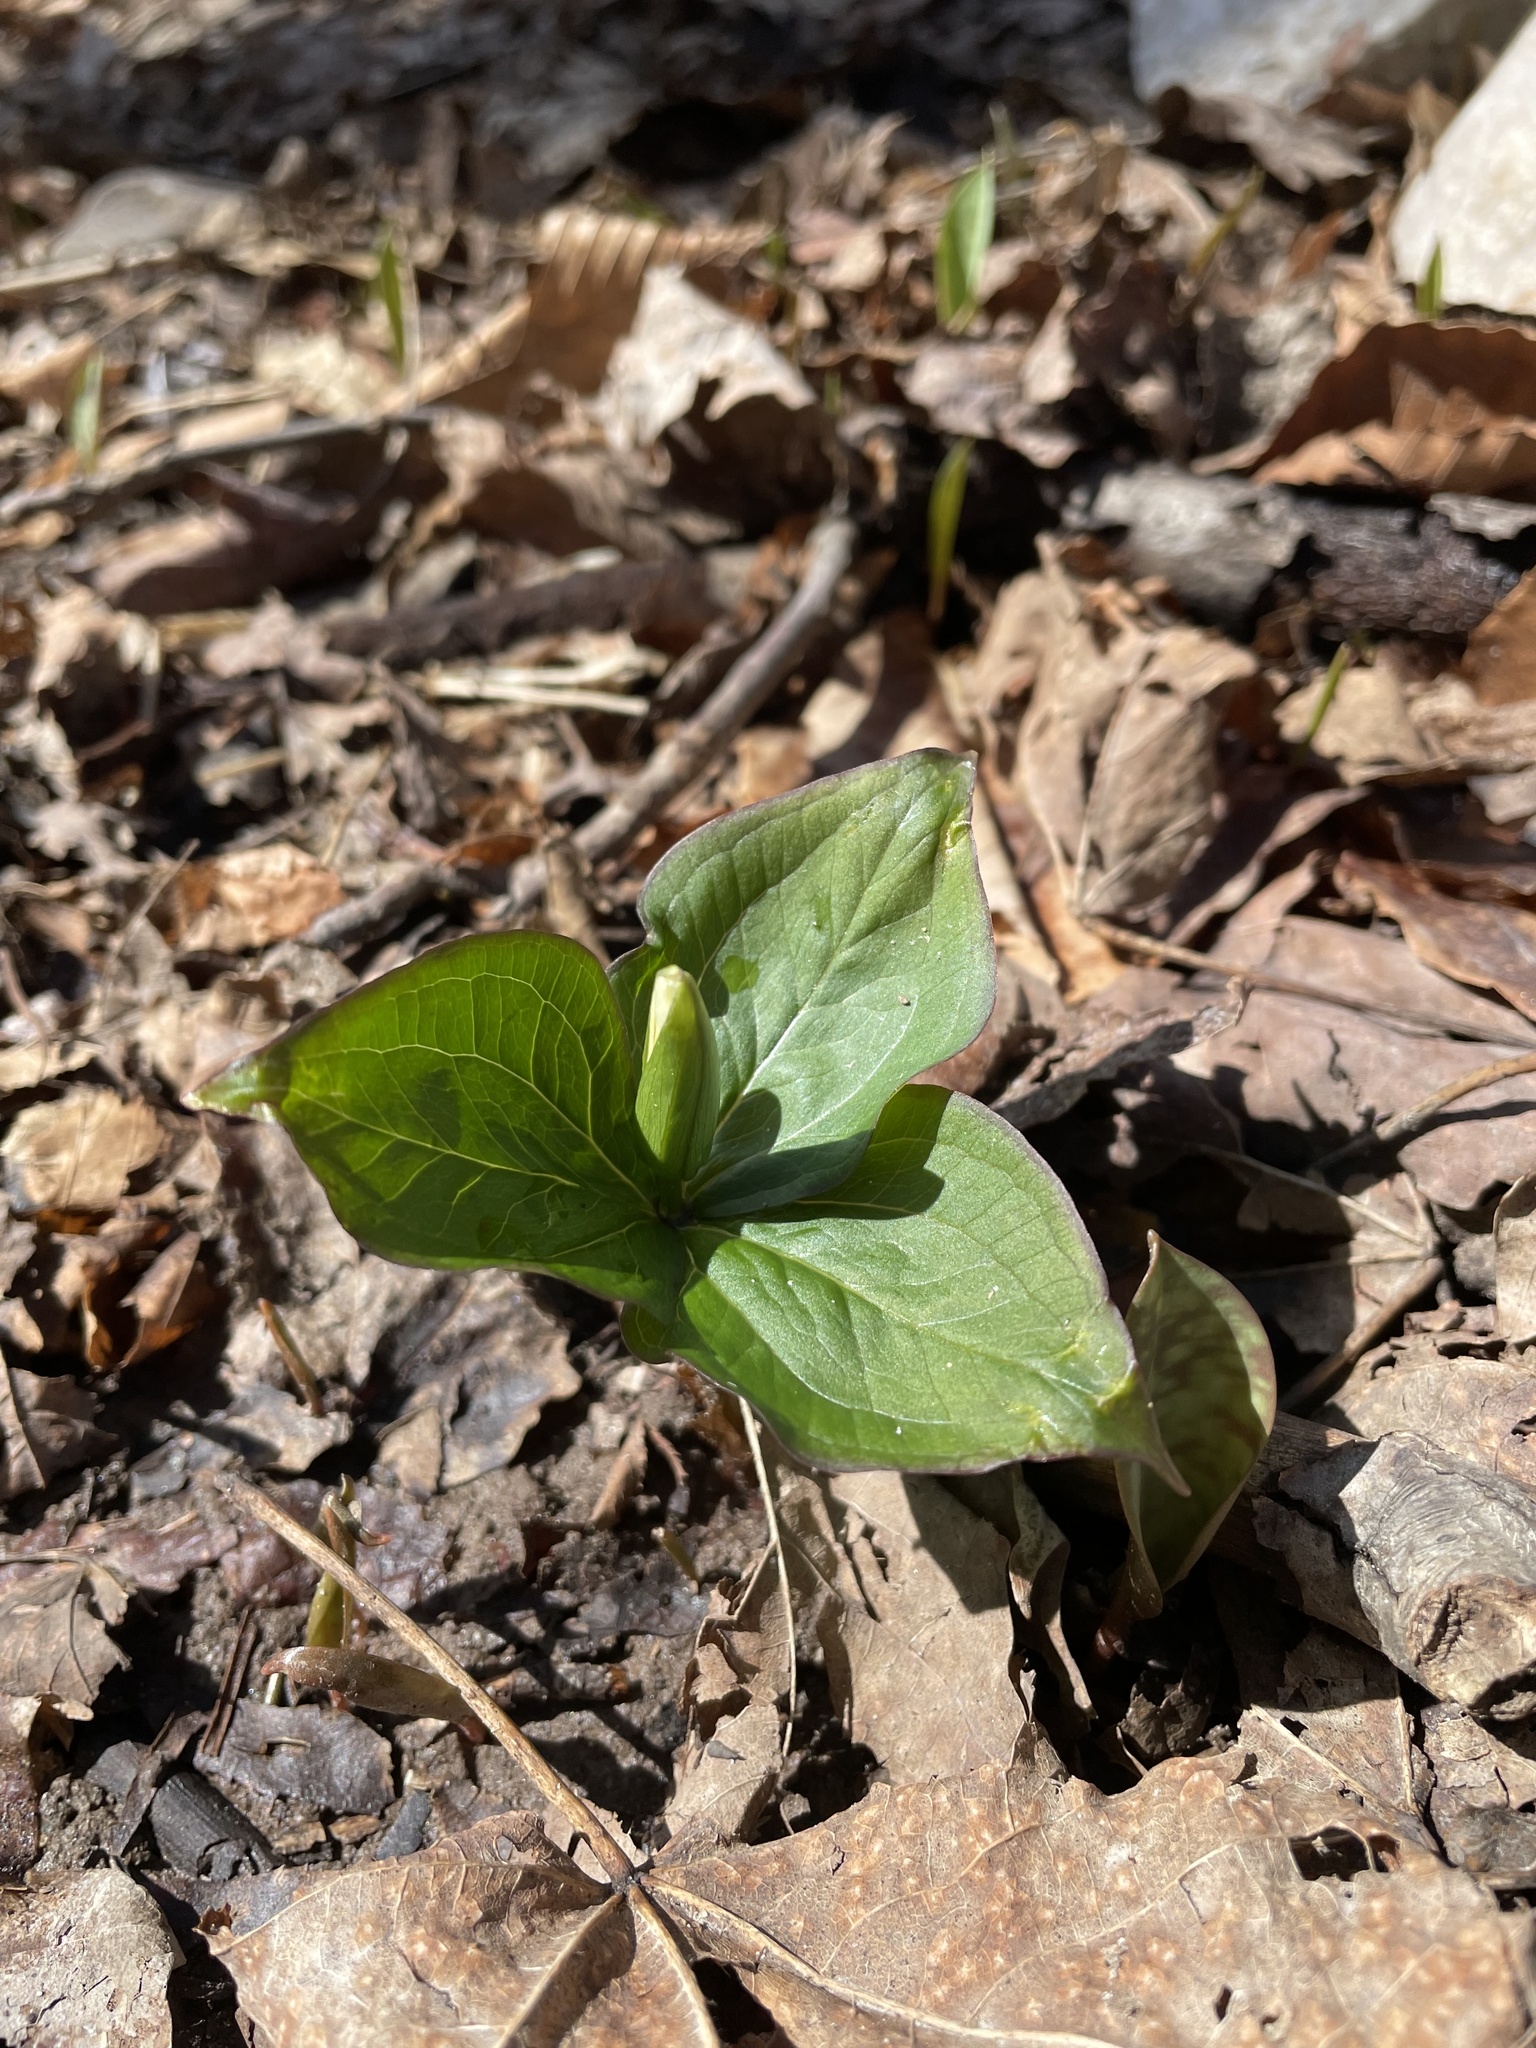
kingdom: Plantae
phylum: Tracheophyta
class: Liliopsida
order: Liliales
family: Melanthiaceae
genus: Trillium
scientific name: Trillium grandiflorum
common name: Great white trillium
